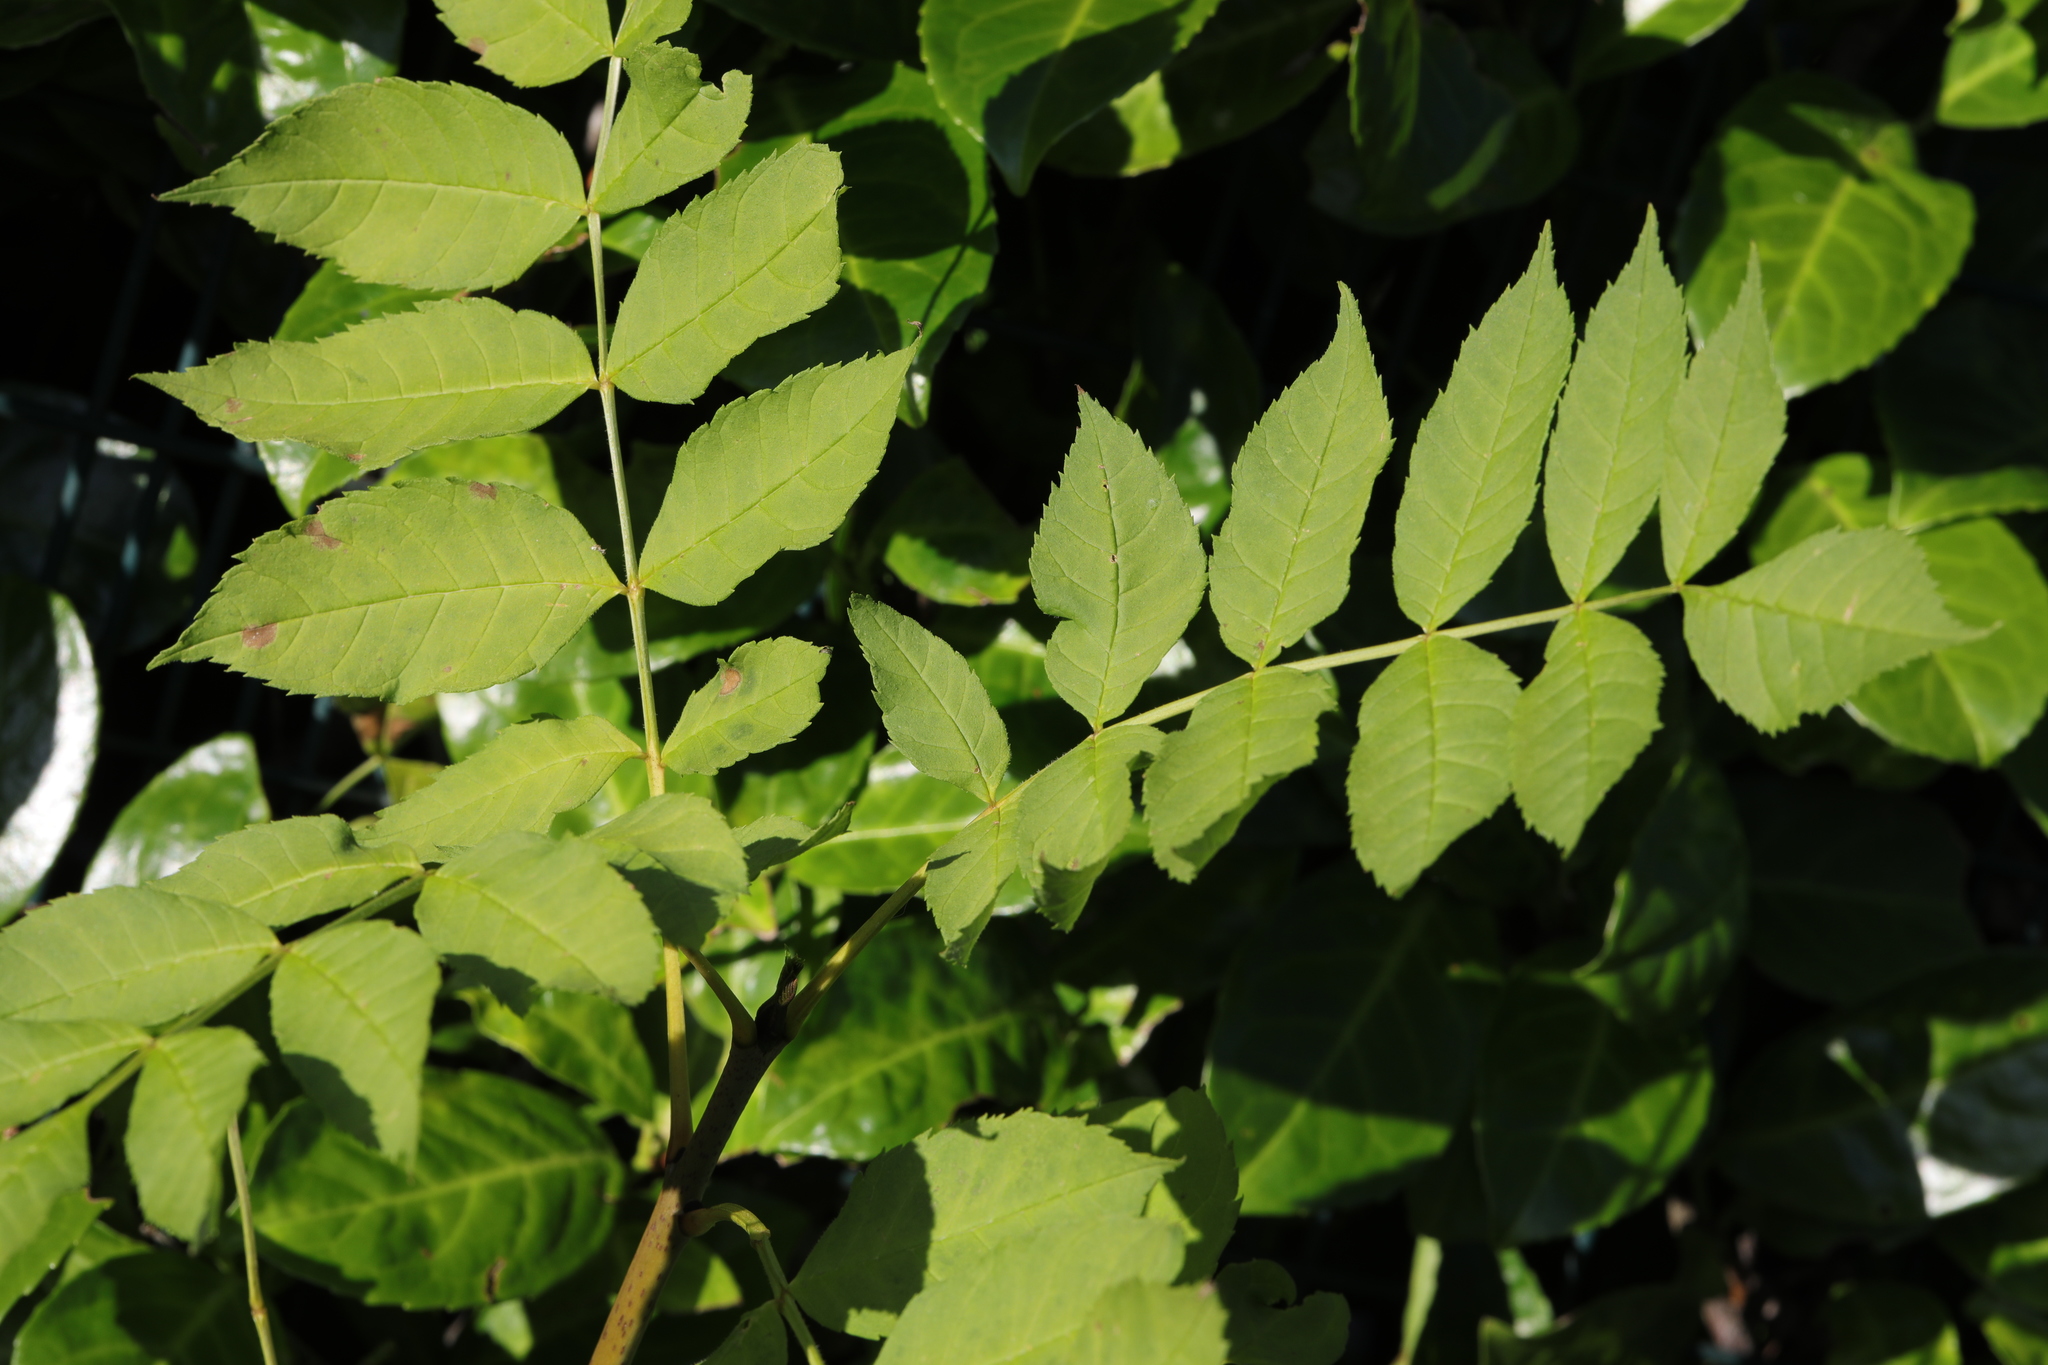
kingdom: Plantae
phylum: Tracheophyta
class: Magnoliopsida
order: Lamiales
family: Oleaceae
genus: Fraxinus
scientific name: Fraxinus excelsior
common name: European ash
